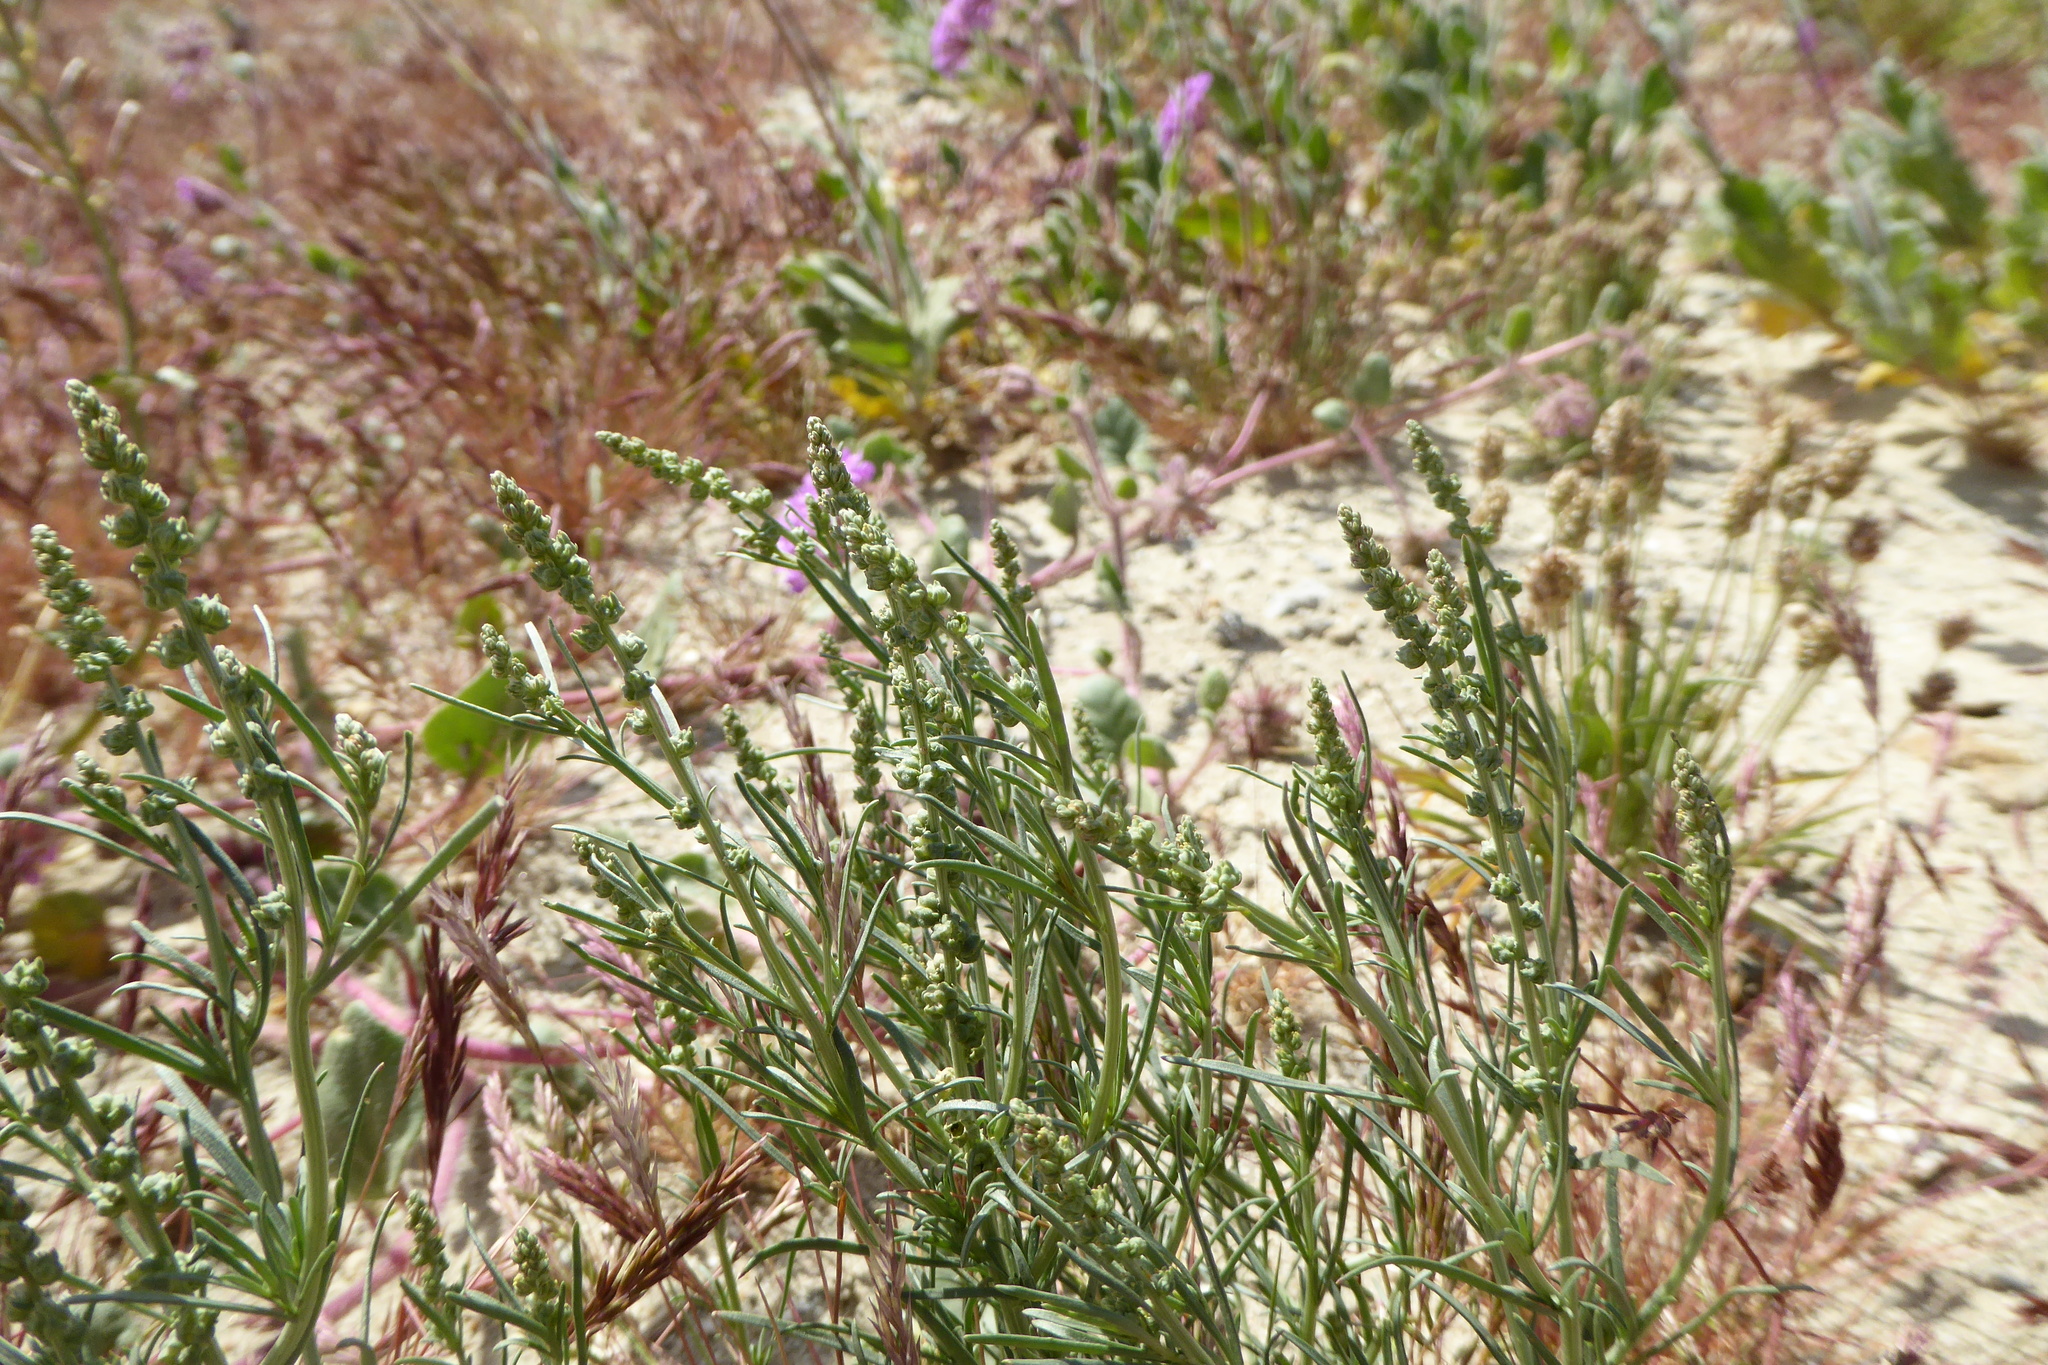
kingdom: Plantae
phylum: Tracheophyta
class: Magnoliopsida
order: Brassicales
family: Resedaceae
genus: Oligomeris
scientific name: Oligomeris linifolia
